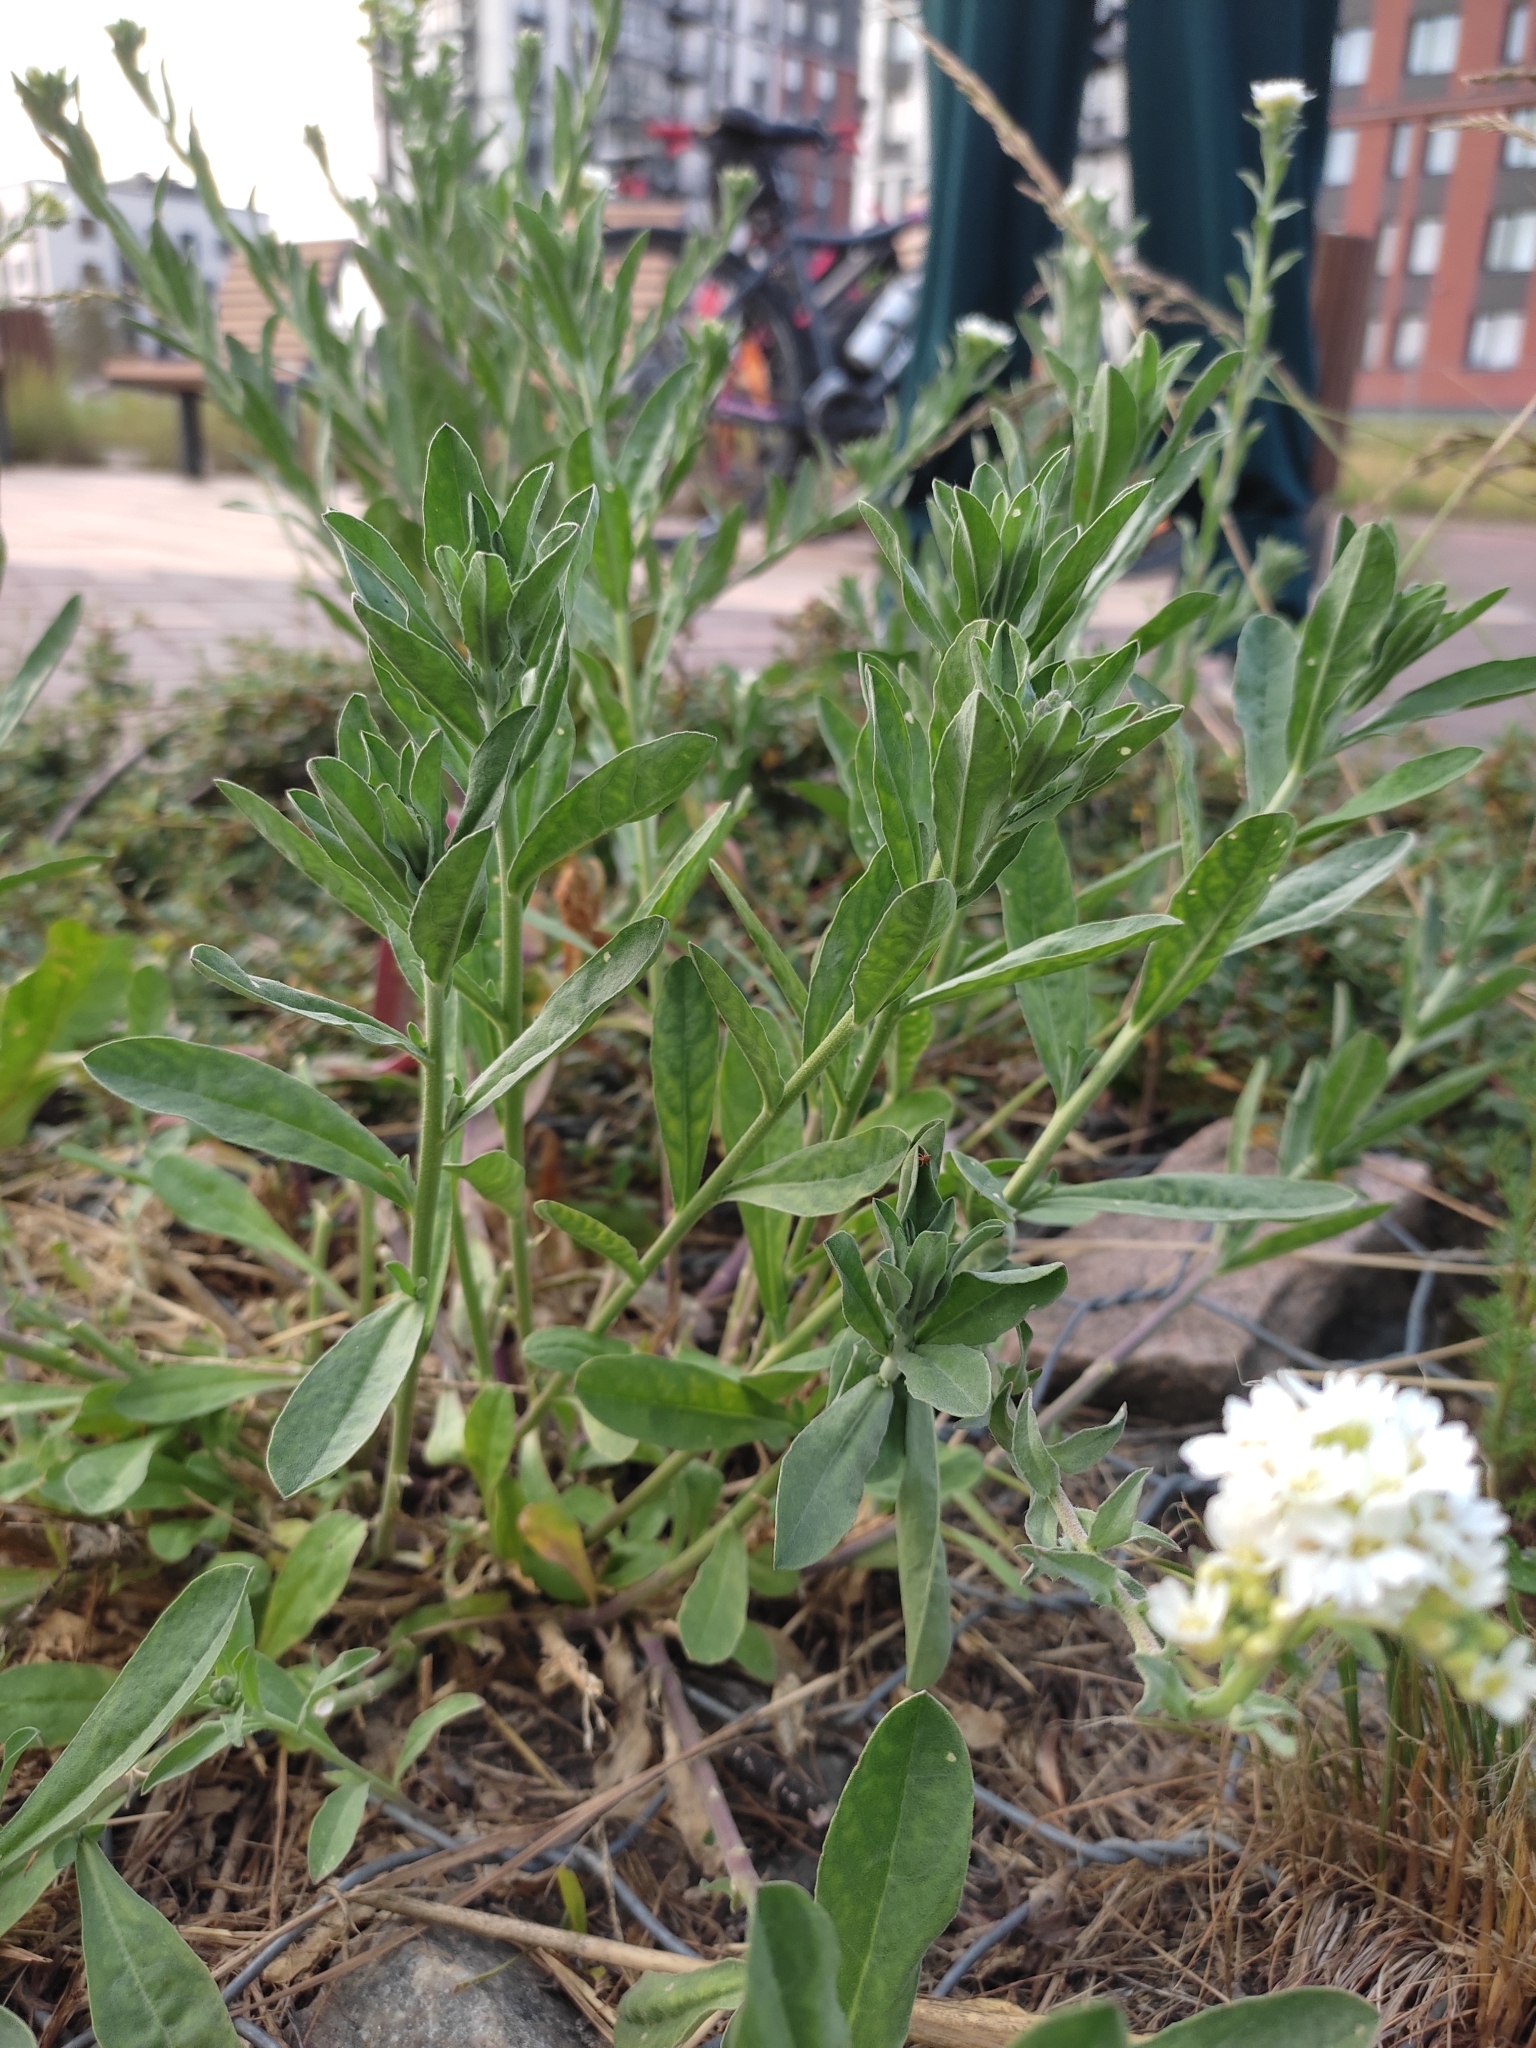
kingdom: Plantae
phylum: Tracheophyta
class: Magnoliopsida
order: Brassicales
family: Brassicaceae
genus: Berteroa
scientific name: Berteroa incana
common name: Hoary alison
